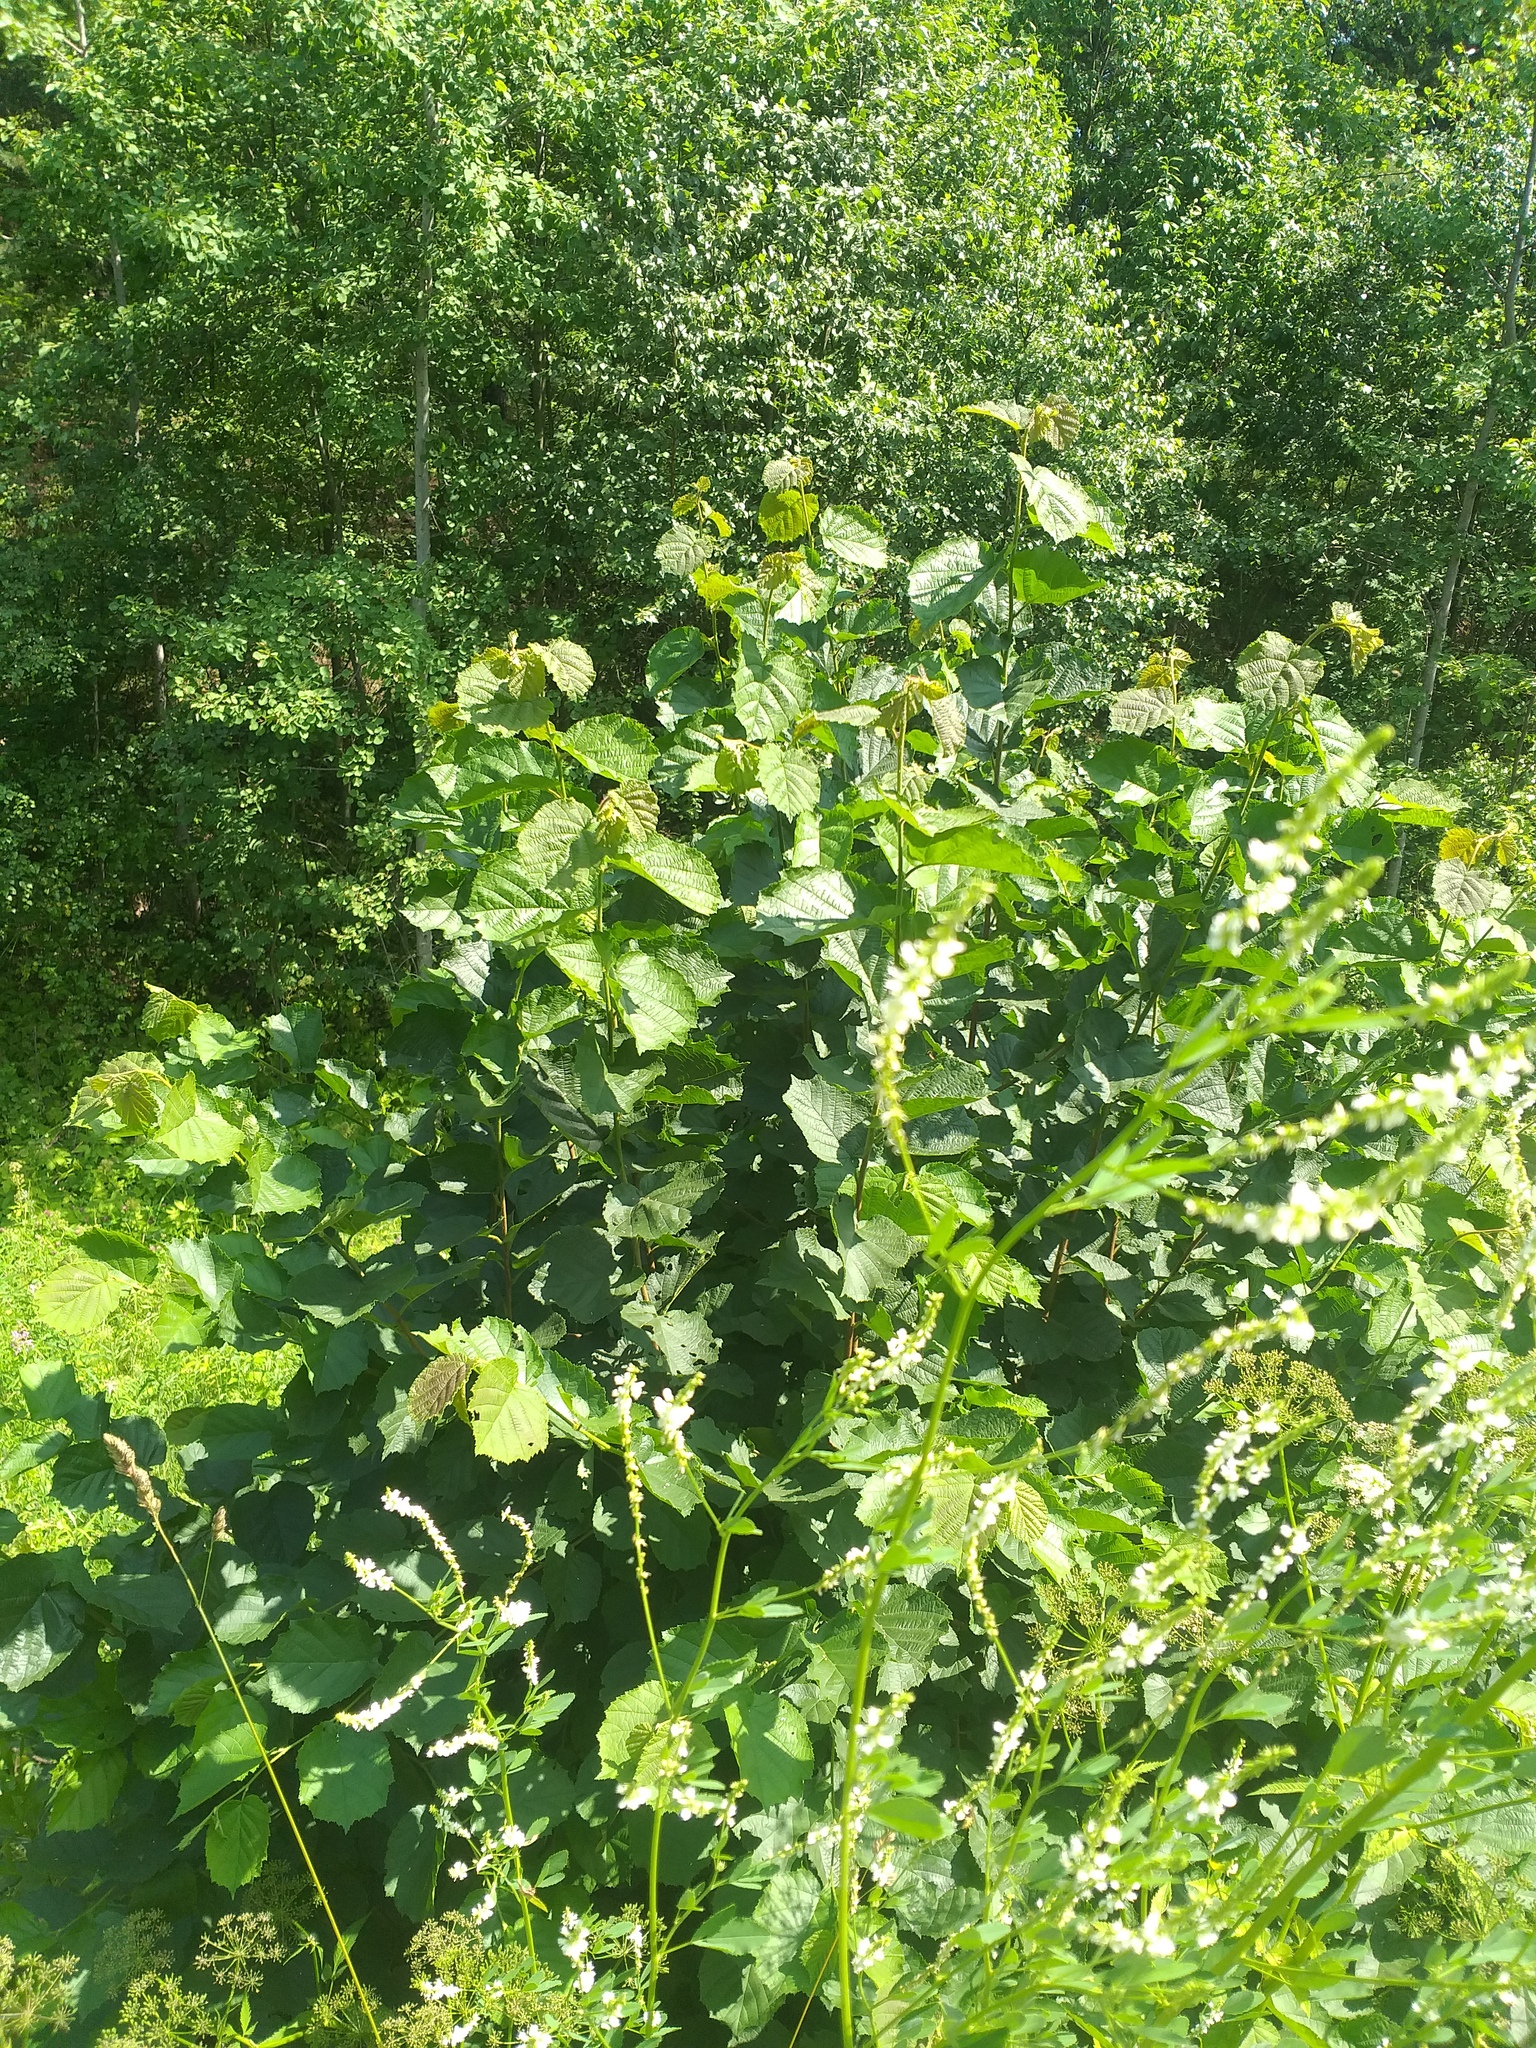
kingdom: Plantae
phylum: Tracheophyta
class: Magnoliopsida
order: Fagales
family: Betulaceae
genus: Corylus
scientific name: Corylus avellana
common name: European hazel
